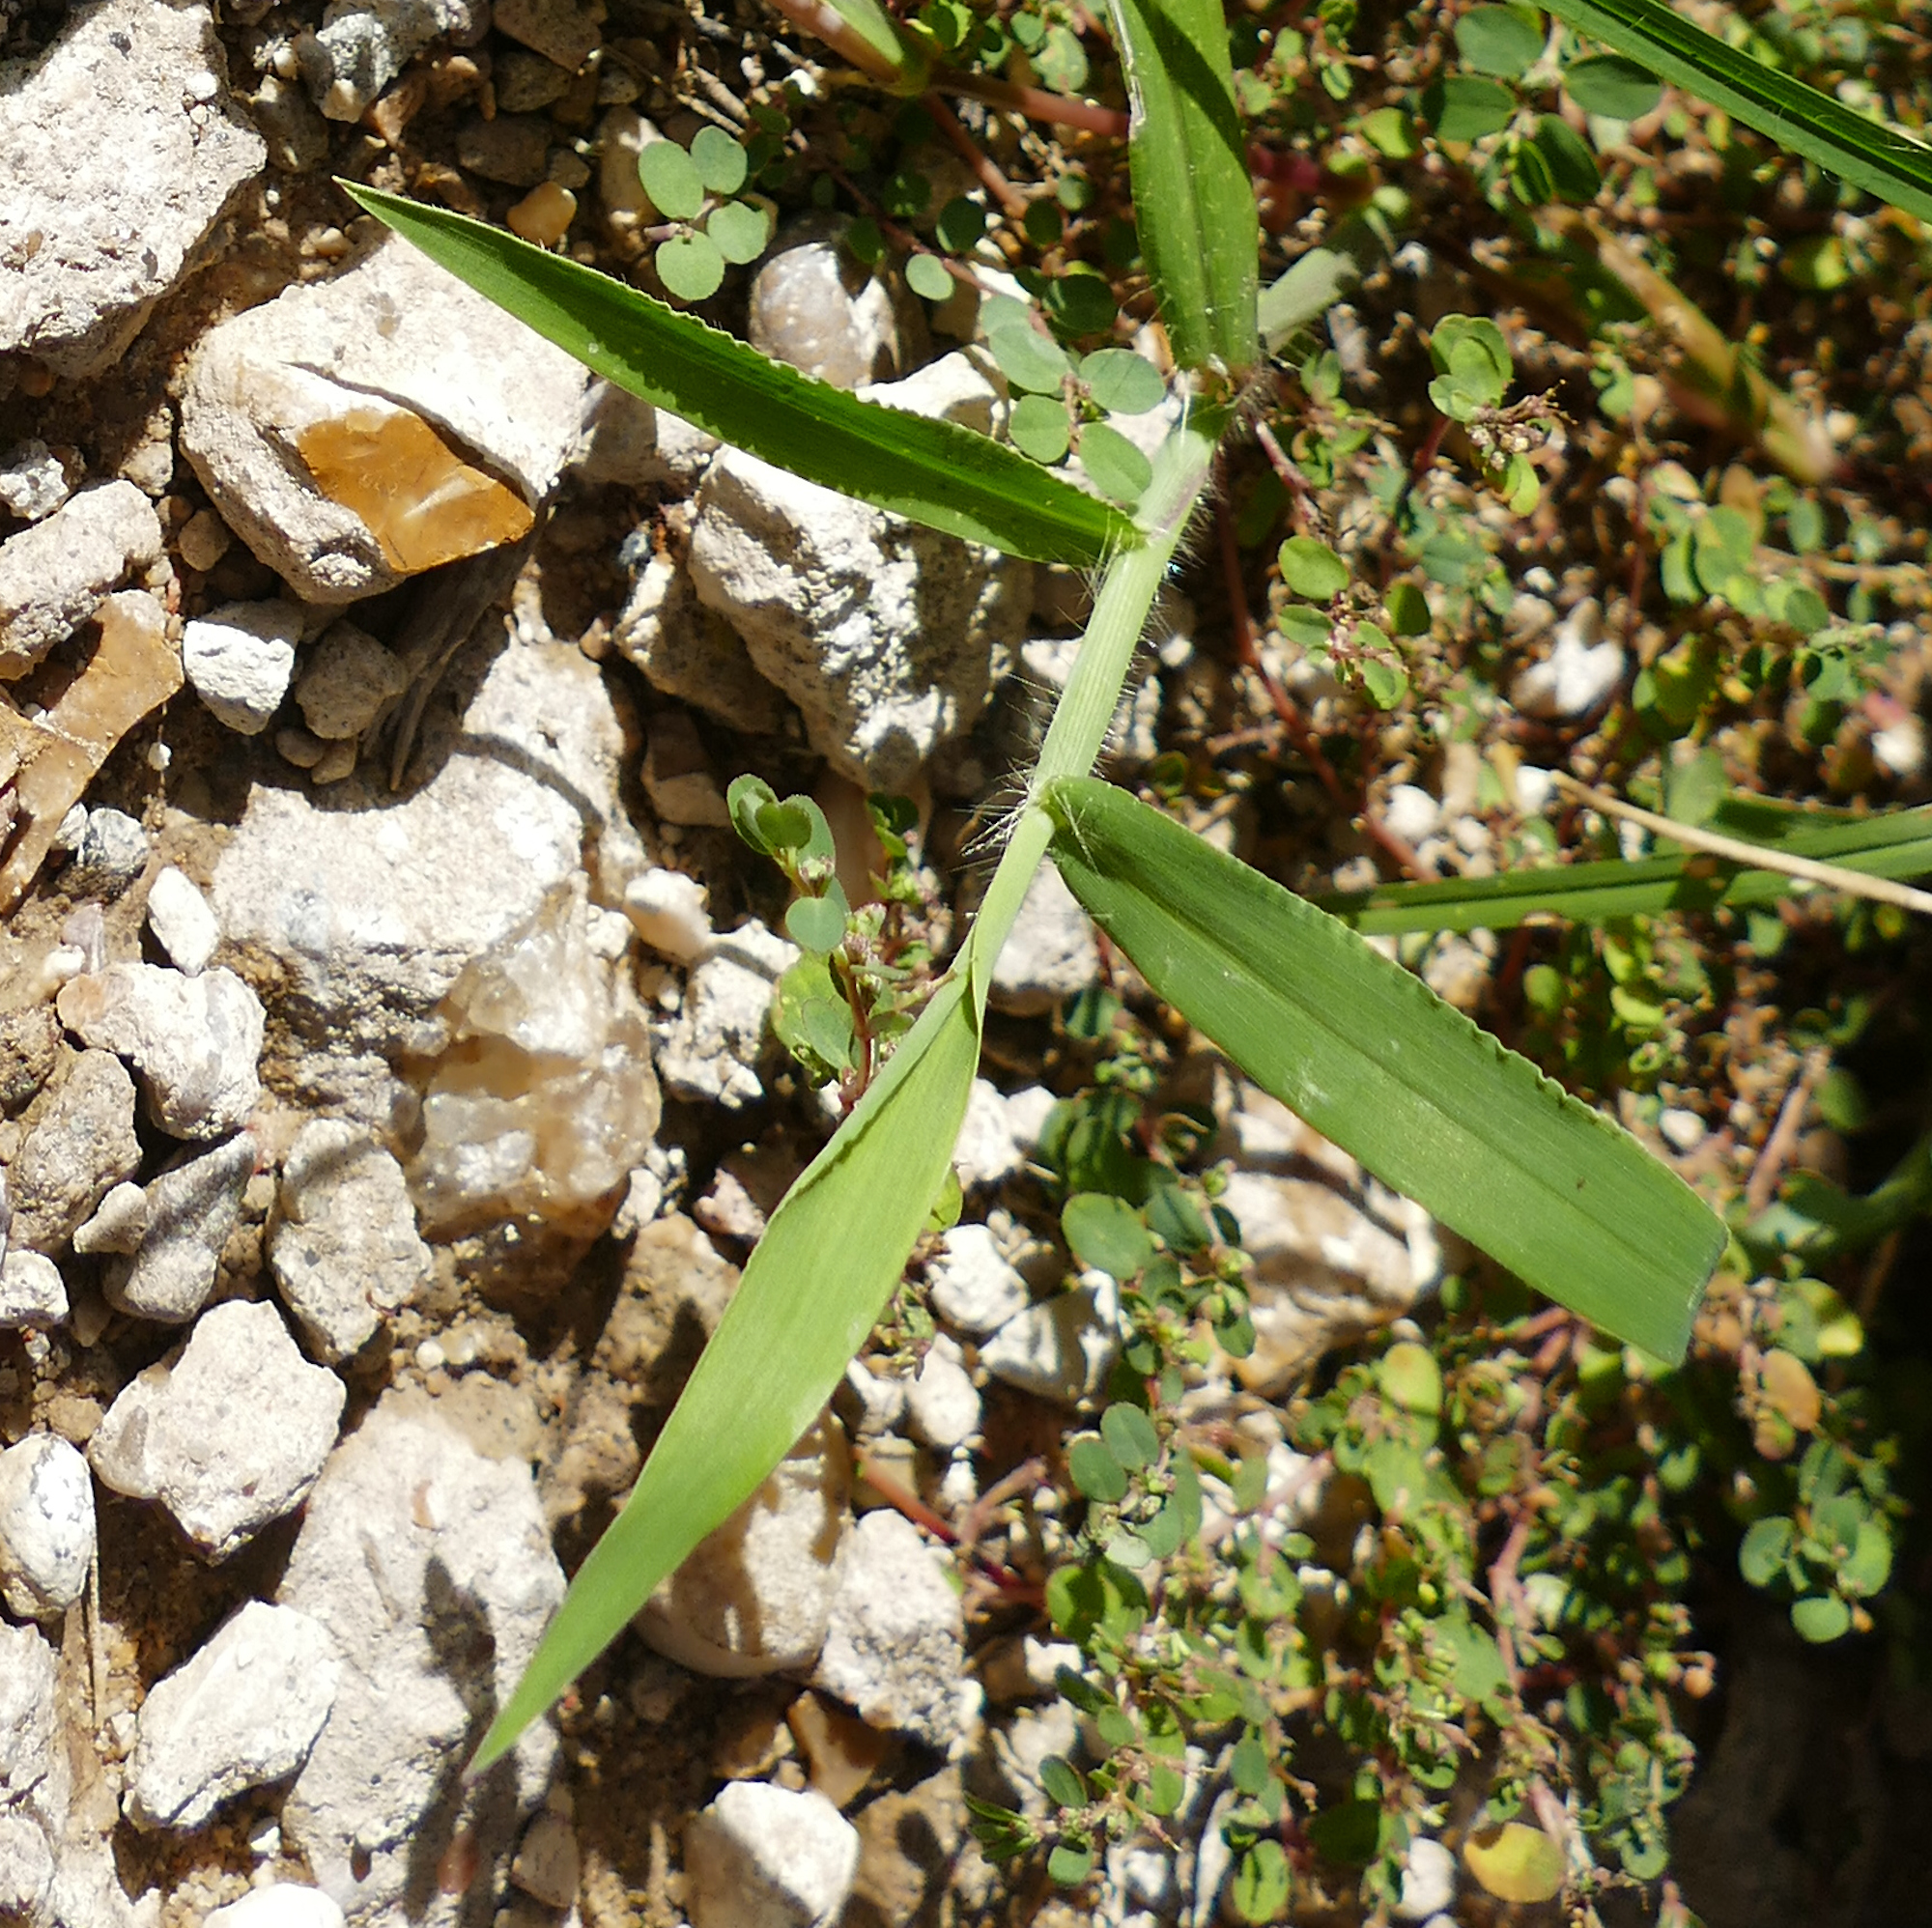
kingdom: Plantae
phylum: Tracheophyta
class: Liliopsida
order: Poales
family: Poaceae
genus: Digitaria
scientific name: Digitaria sanguinalis
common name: Hairy crabgrass
